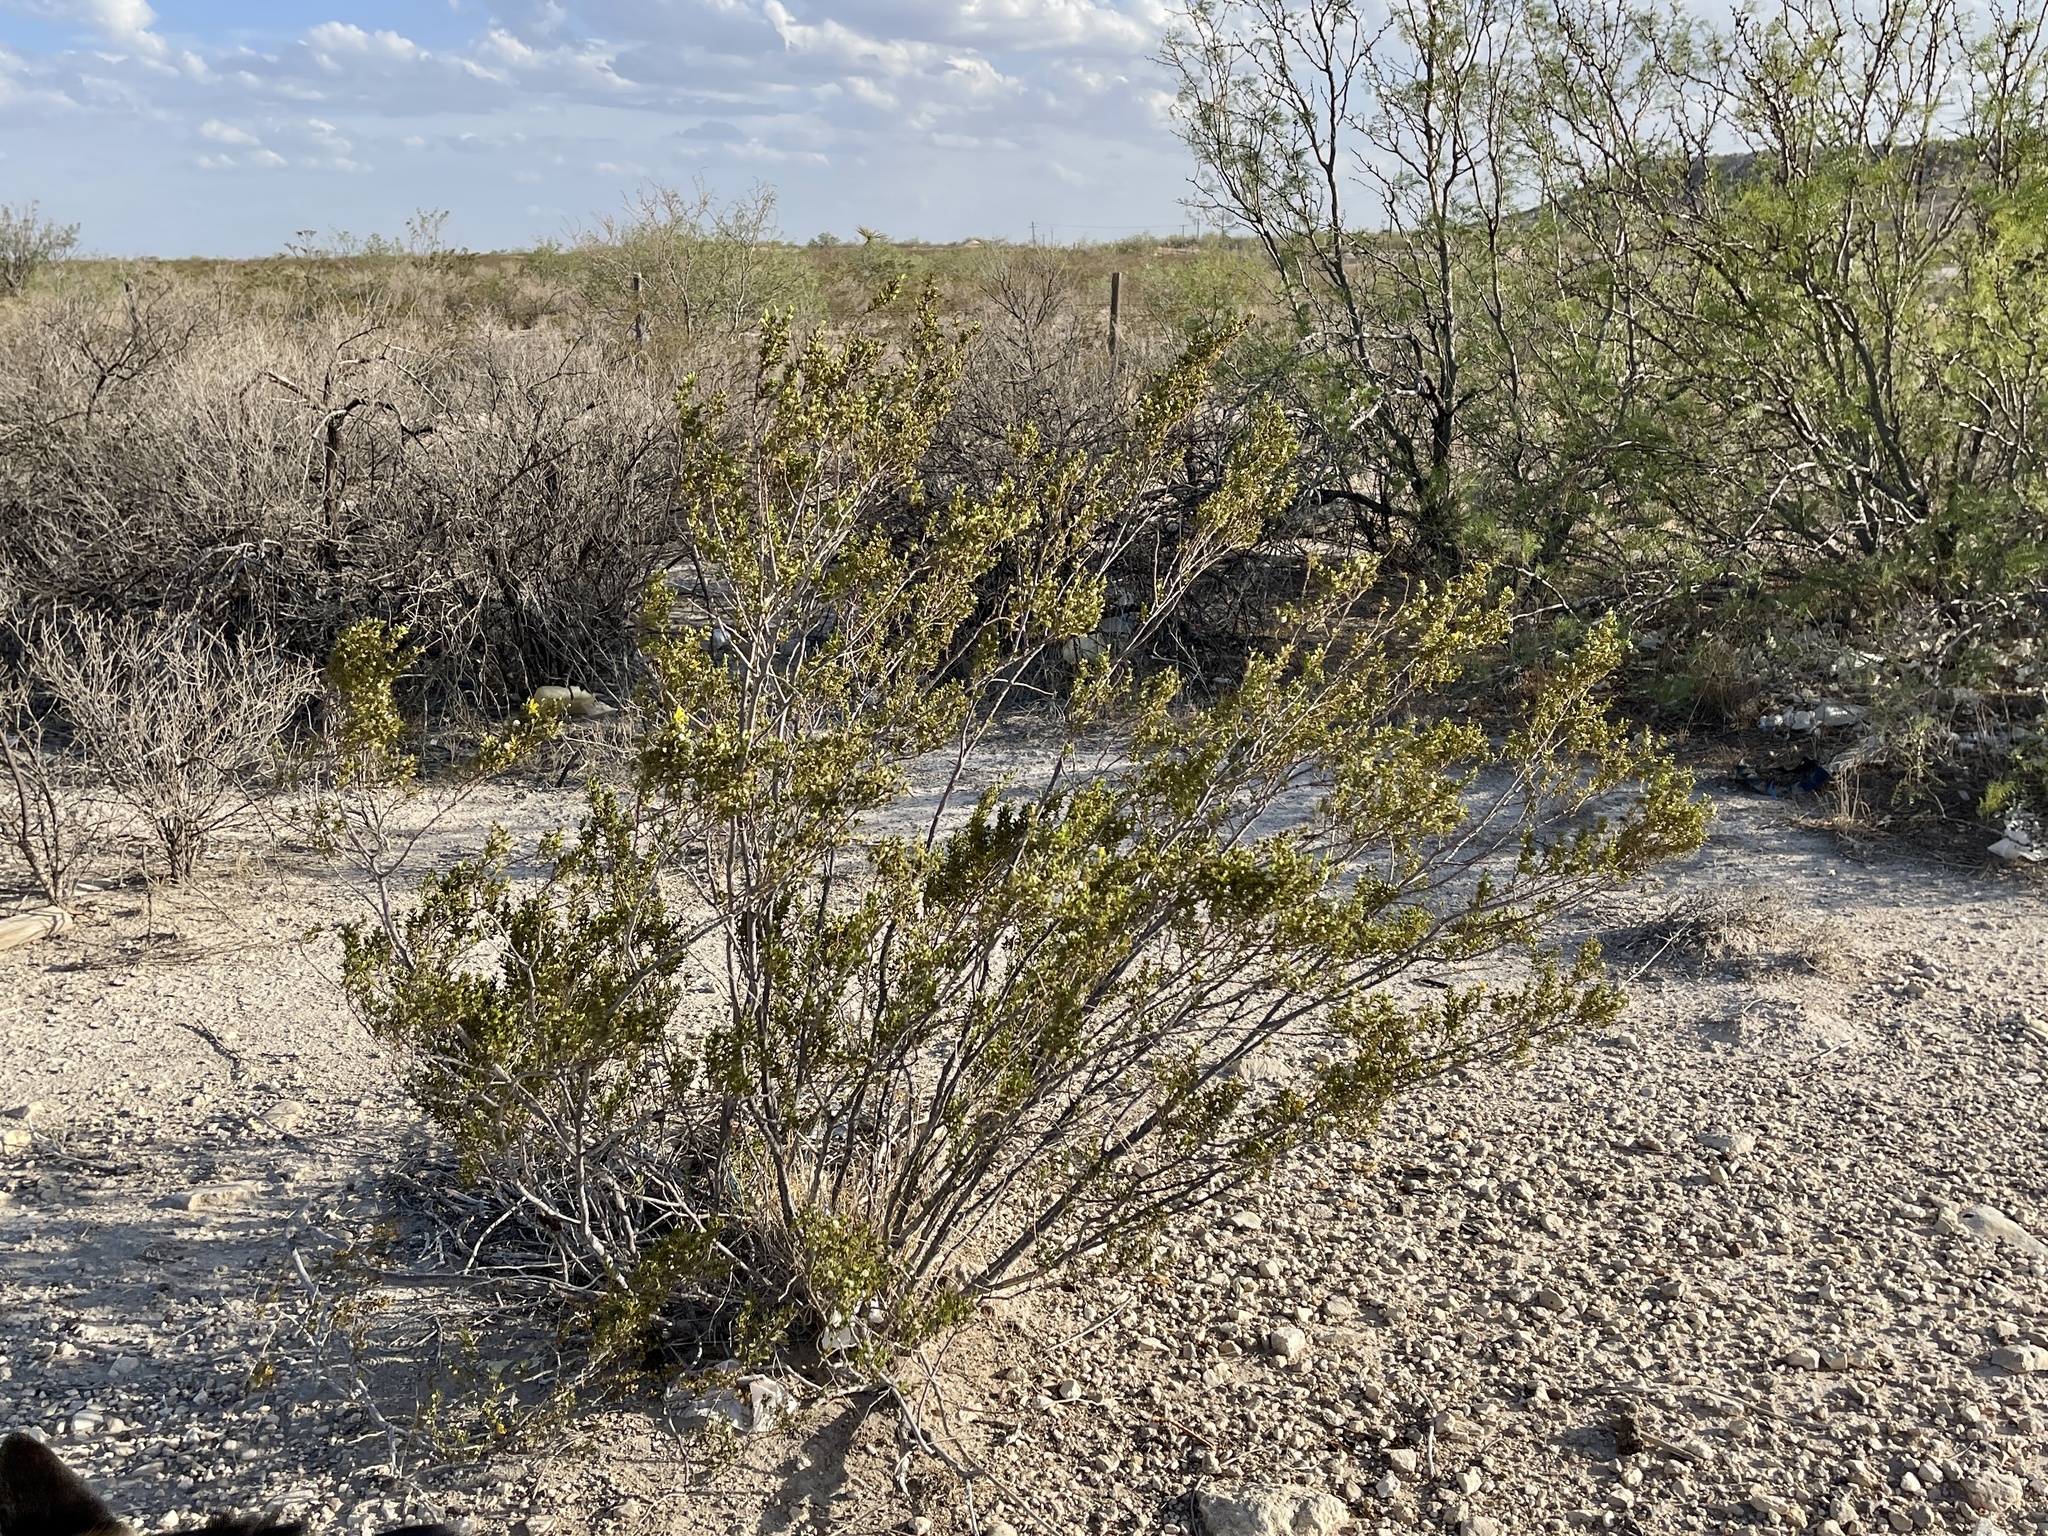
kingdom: Plantae
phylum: Tracheophyta
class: Magnoliopsida
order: Zygophyllales
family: Zygophyllaceae
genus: Larrea
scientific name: Larrea tridentata
